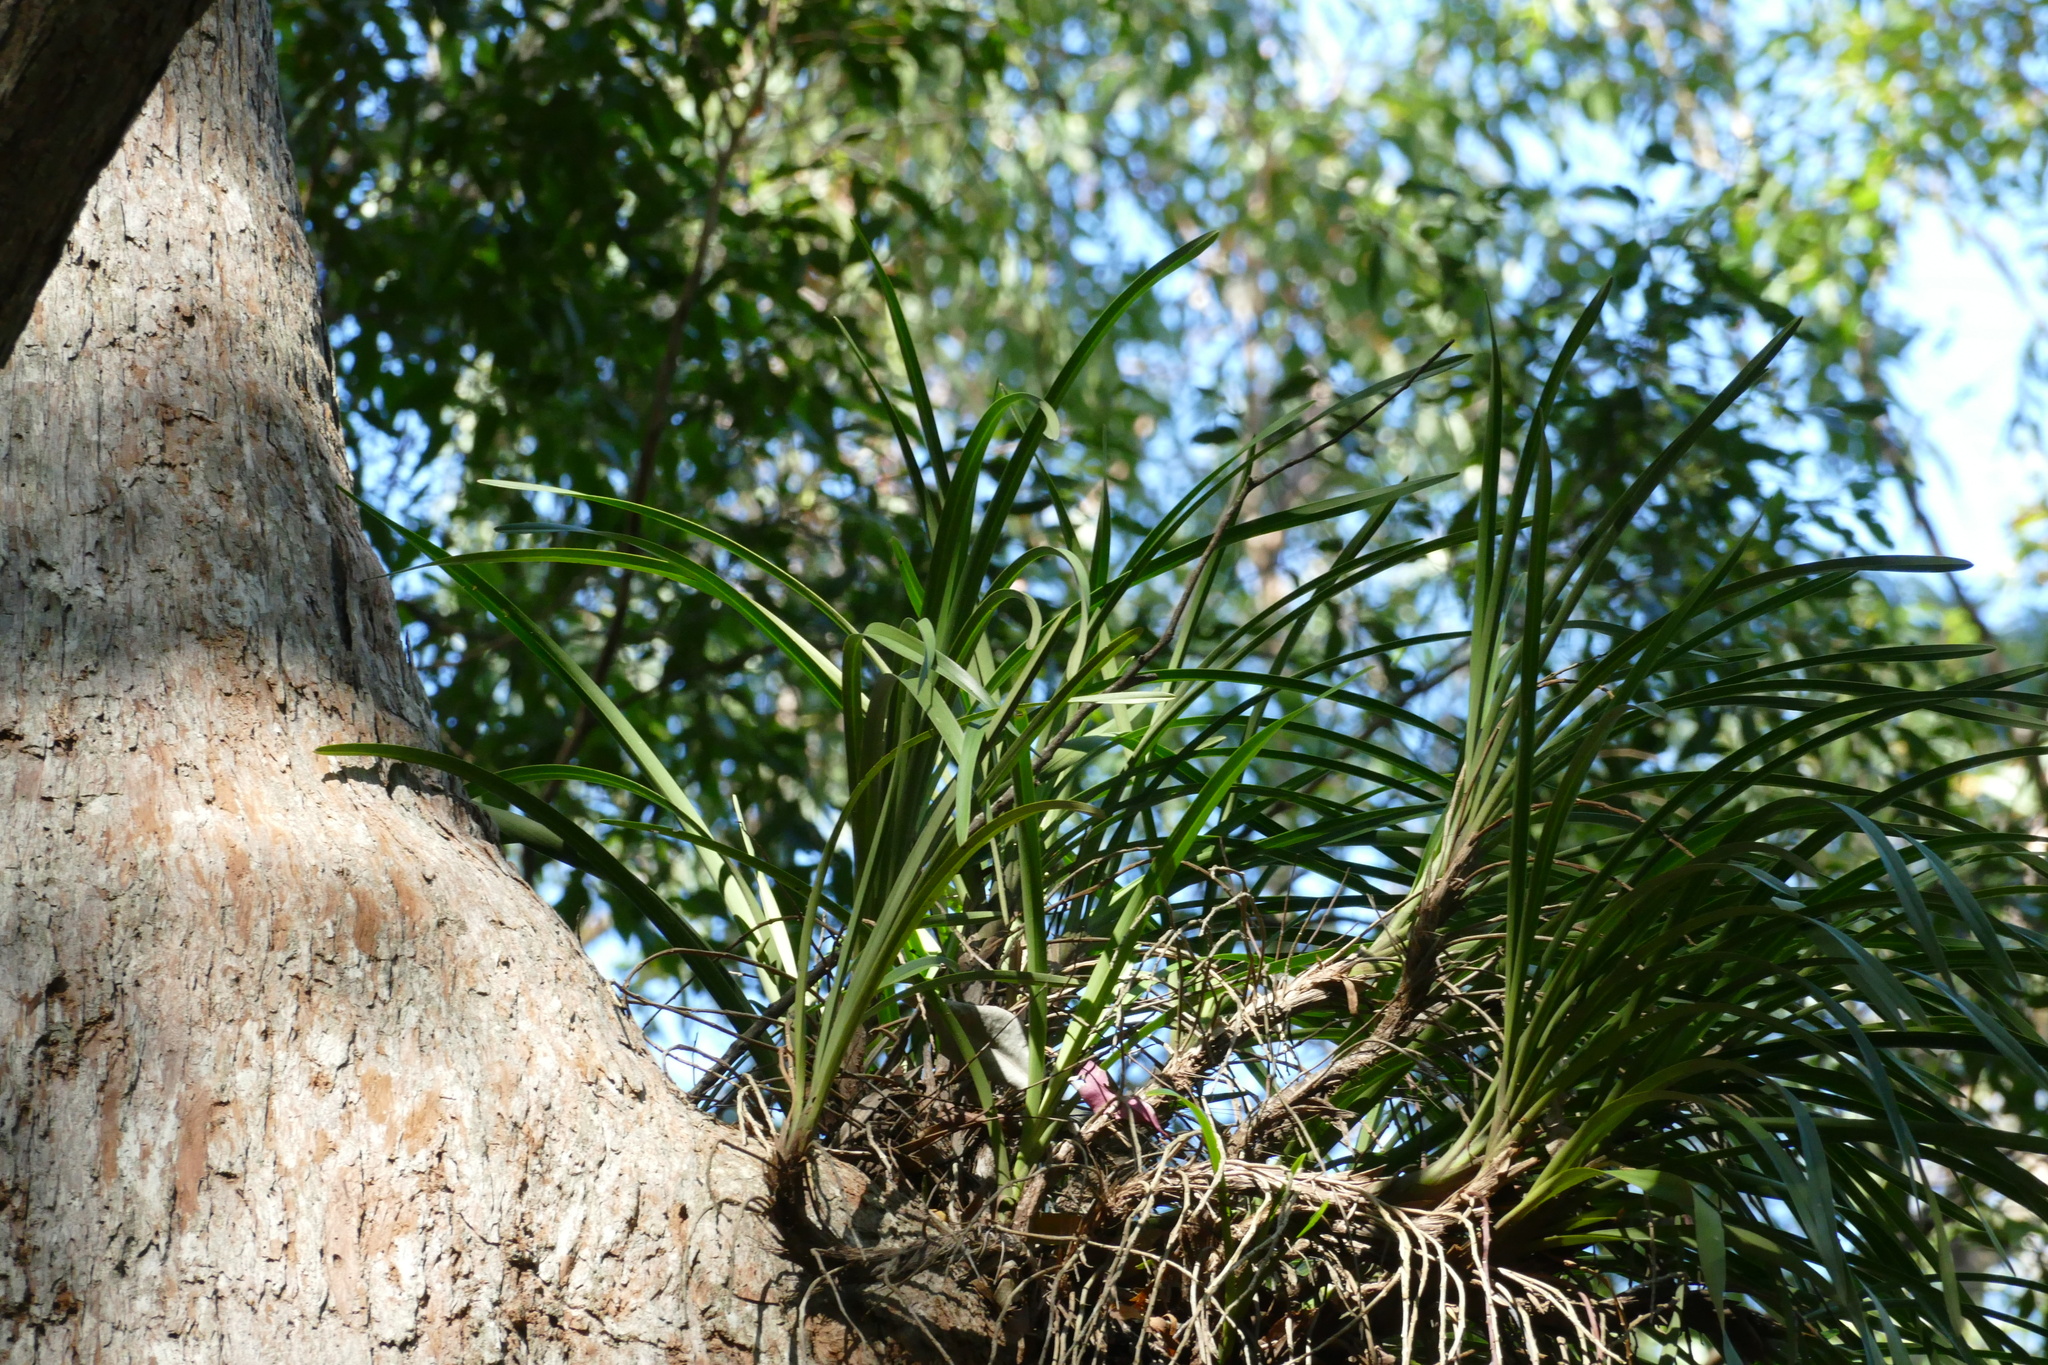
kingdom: Plantae
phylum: Tracheophyta
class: Liliopsida
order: Asparagales
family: Orchidaceae
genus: Cymbidium
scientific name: Cymbidium suave
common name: Snake orchid
